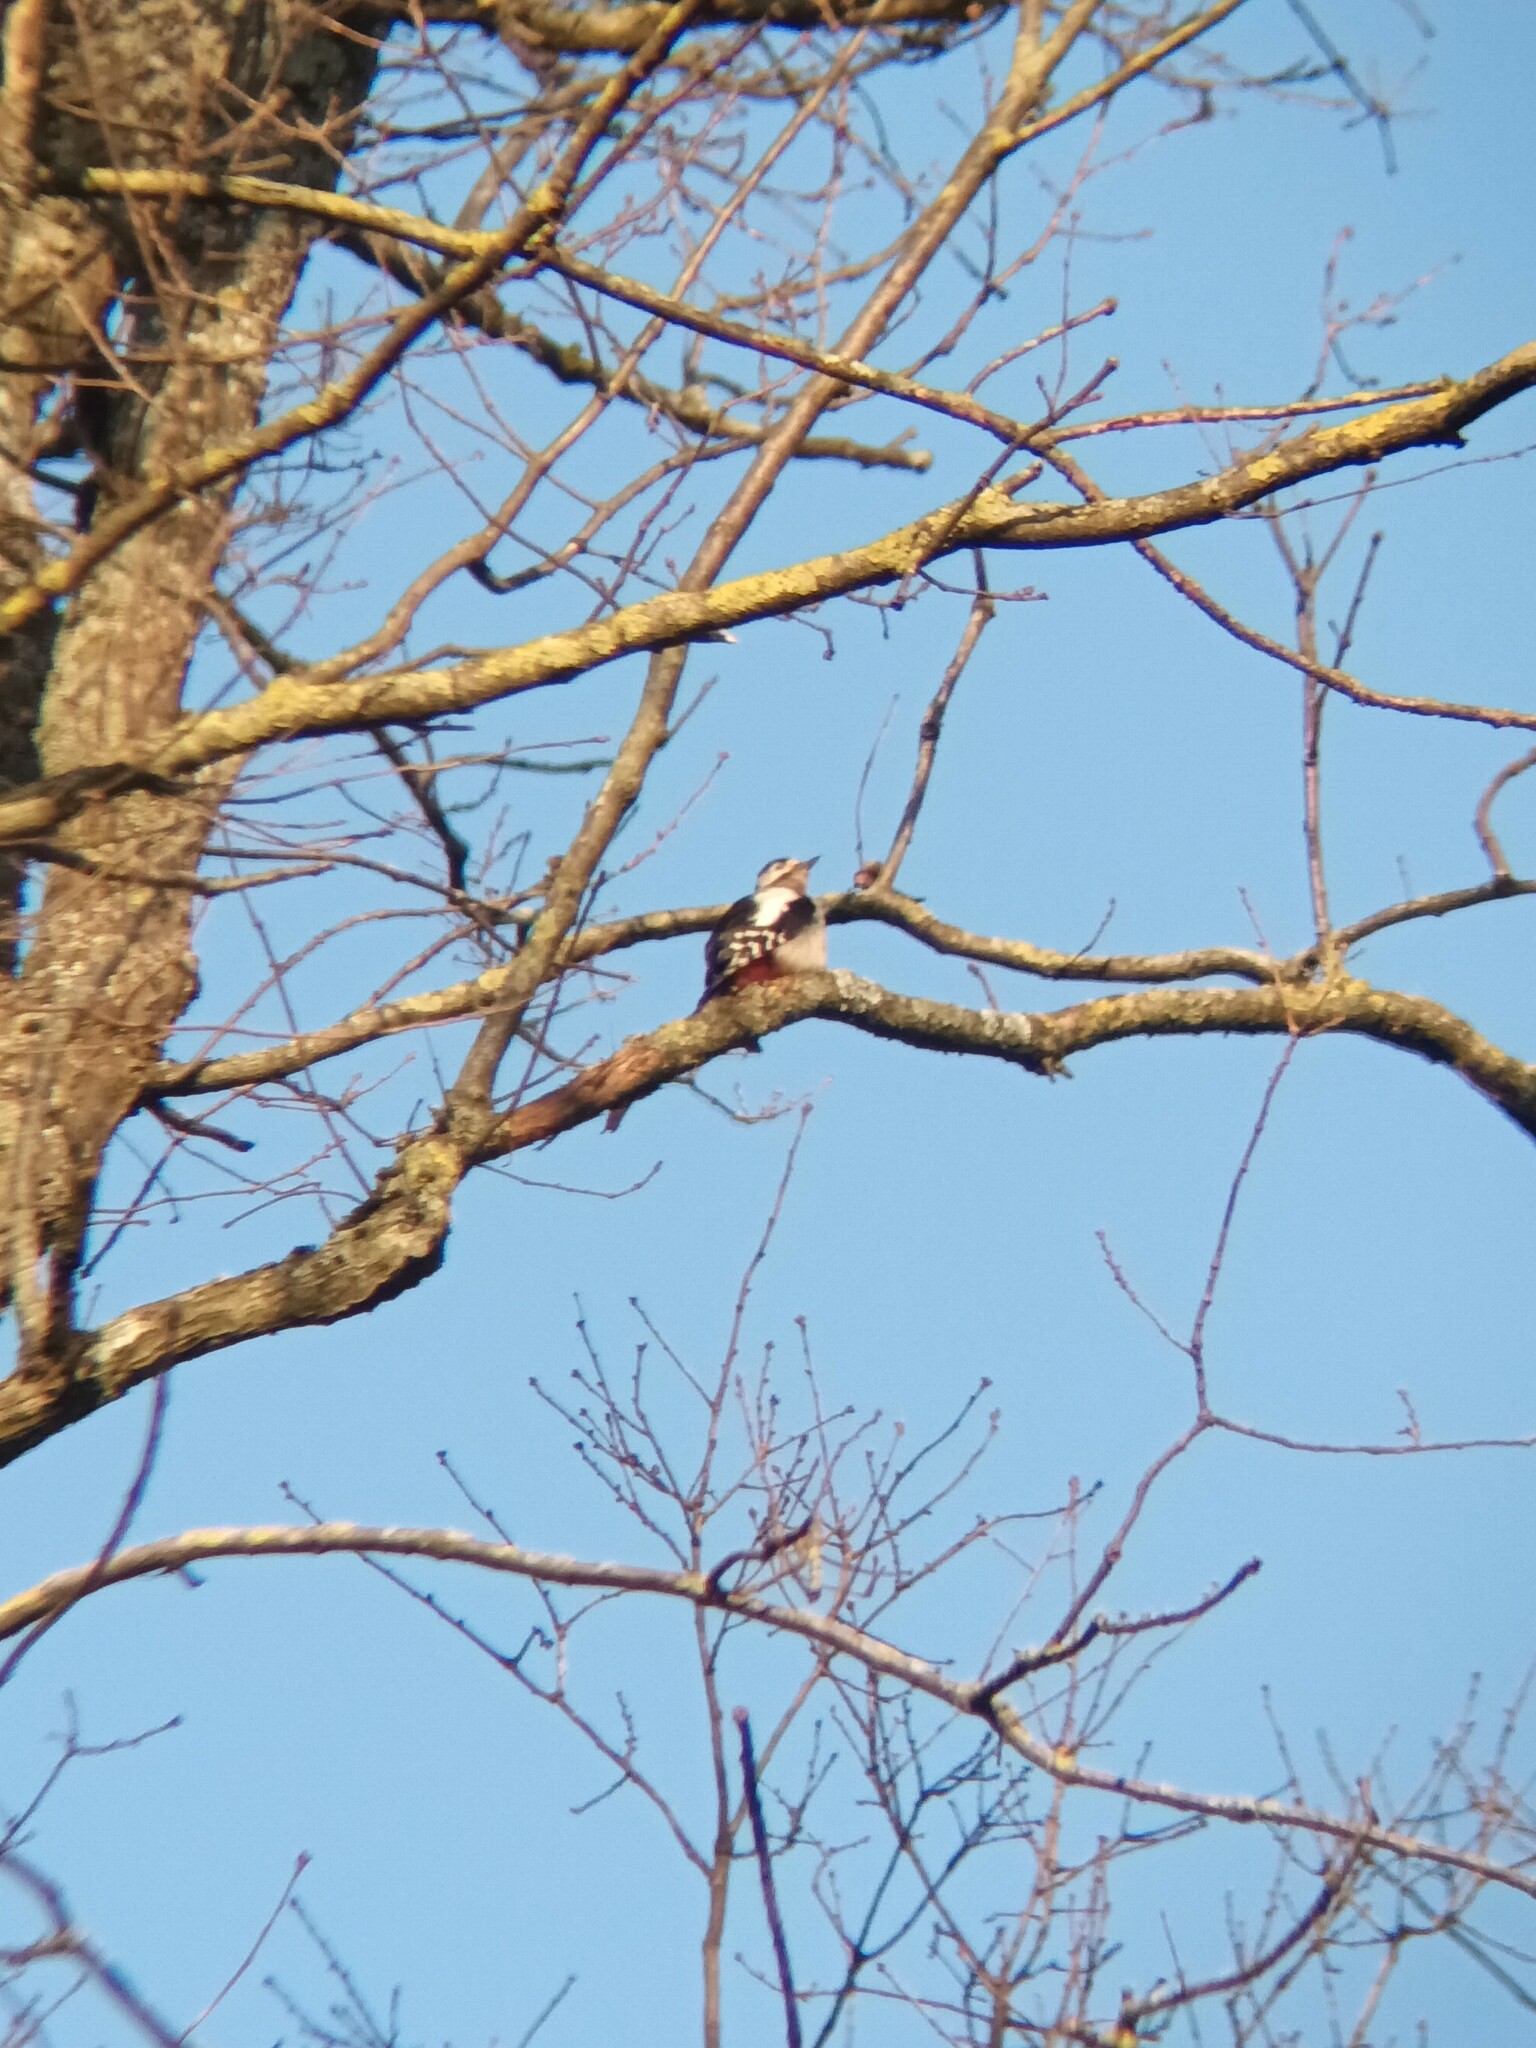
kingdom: Animalia
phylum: Chordata
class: Aves
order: Piciformes
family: Picidae
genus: Dendrocopos
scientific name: Dendrocopos major
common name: Great spotted woodpecker
